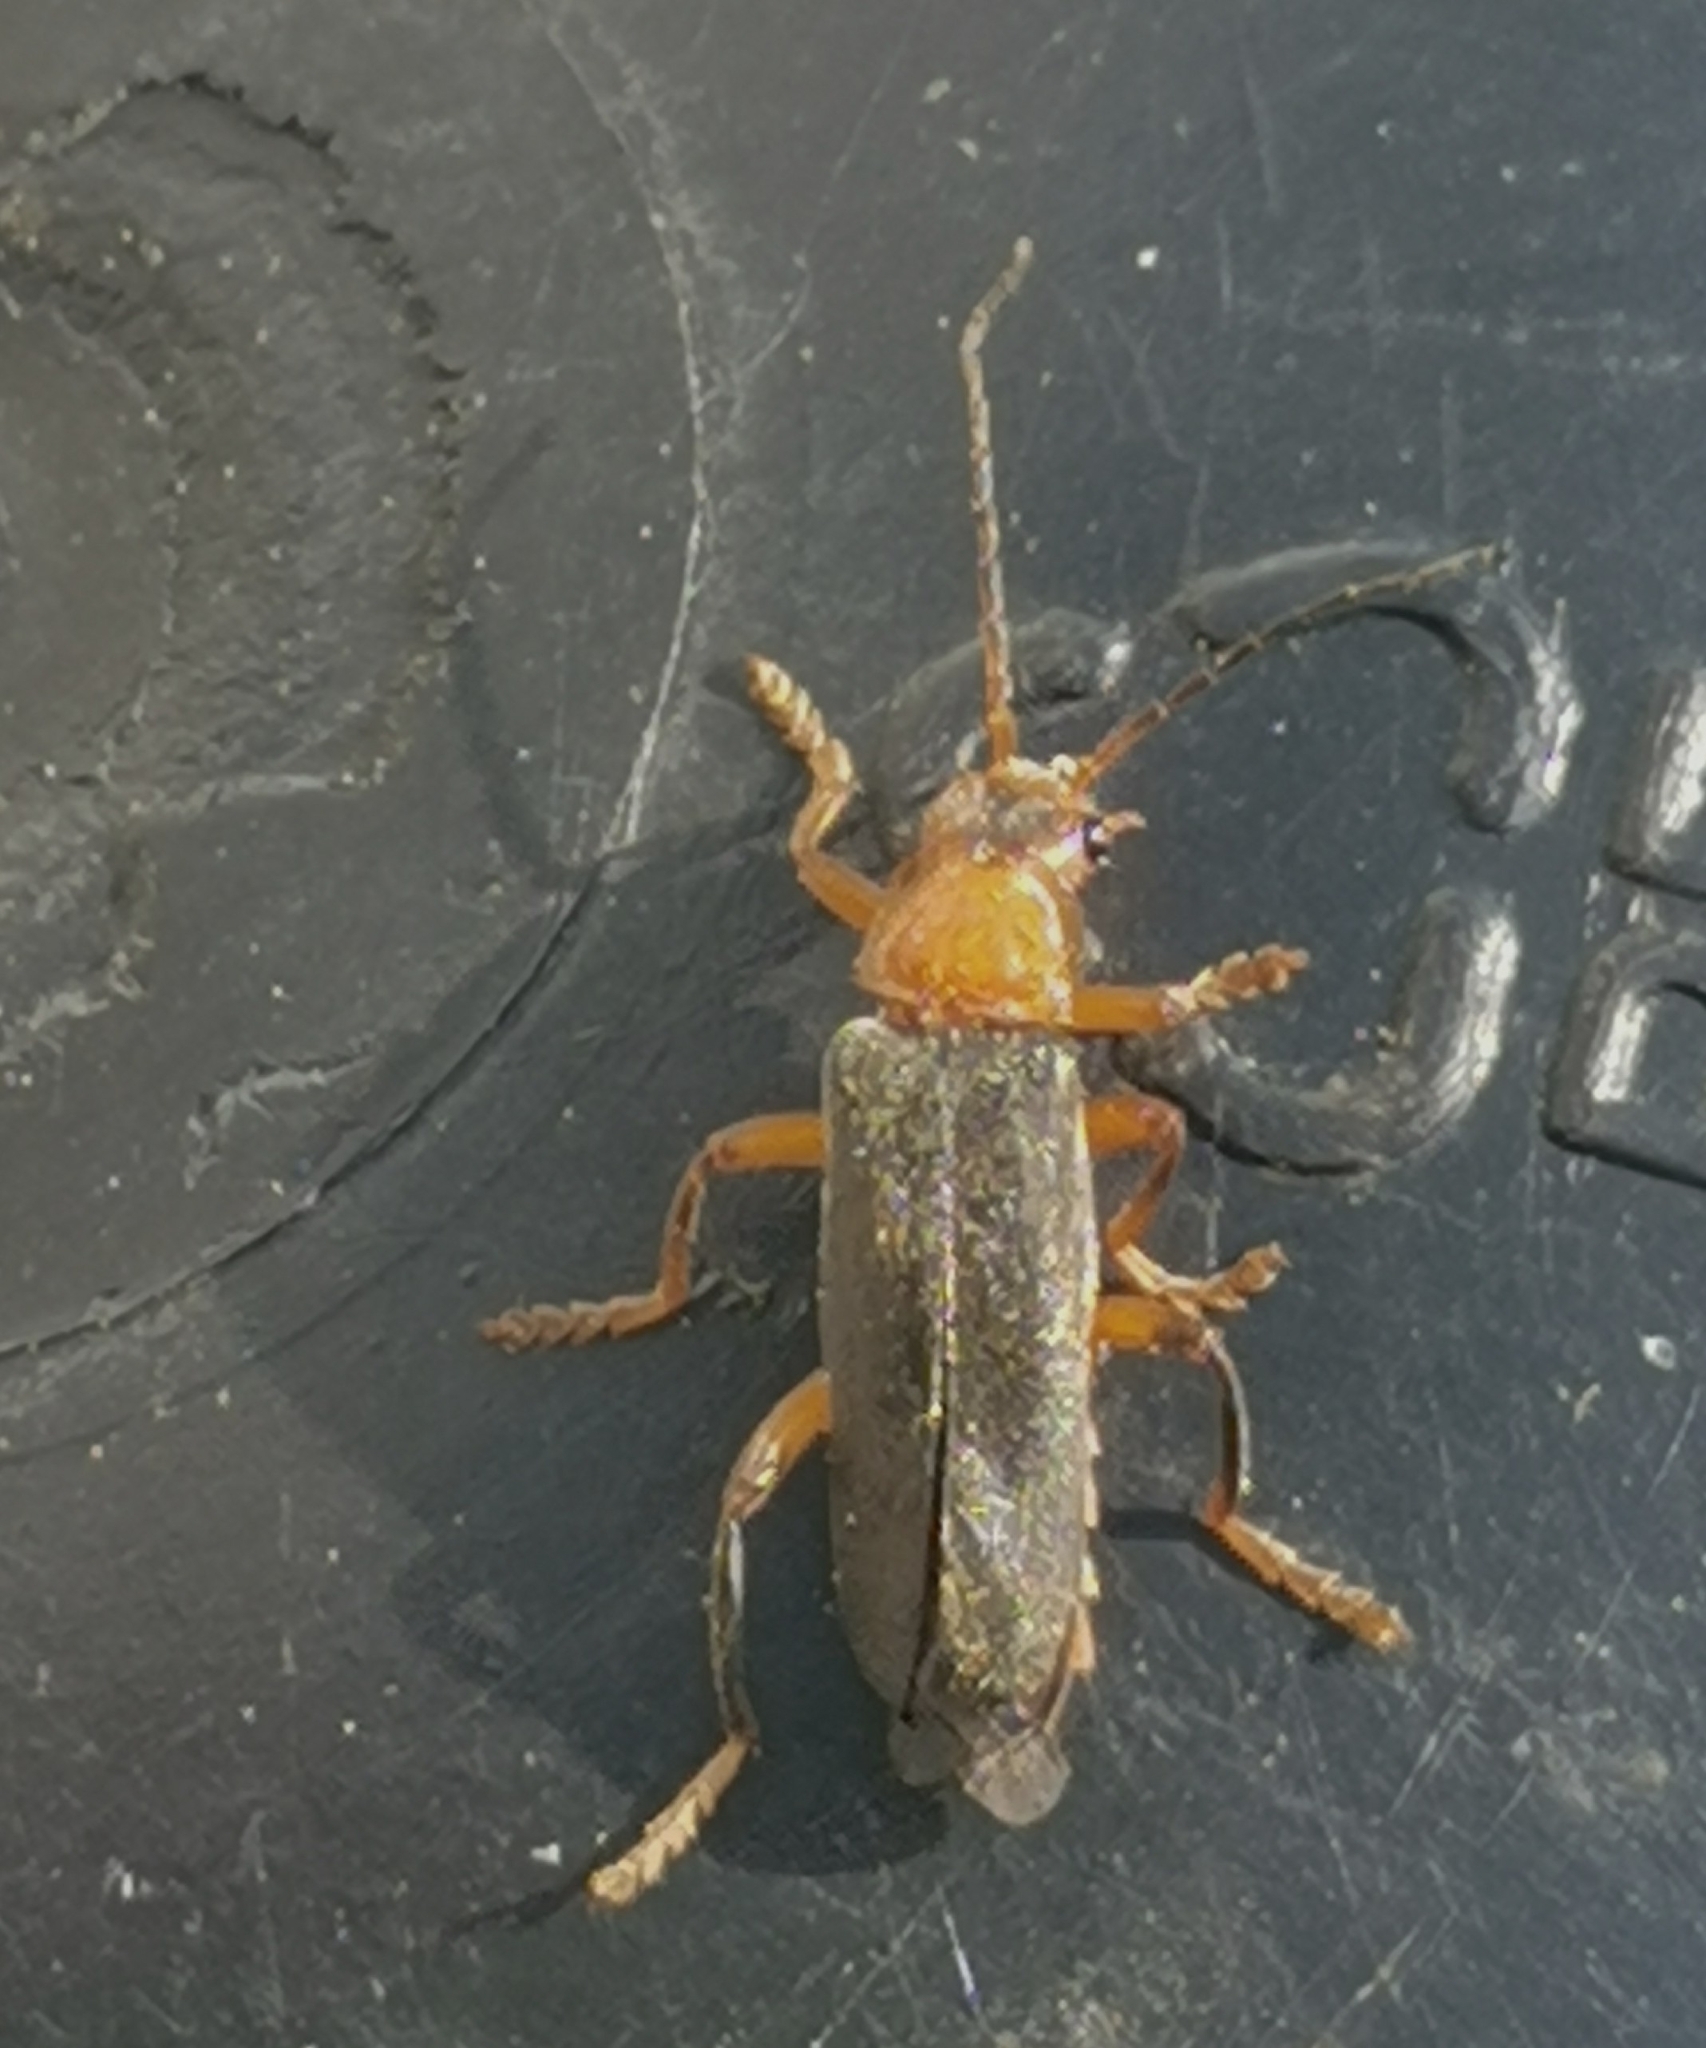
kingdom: Animalia
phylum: Arthropoda
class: Insecta
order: Coleoptera
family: Cantharidae
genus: Cantharis
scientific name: Cantharis livida
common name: Livid soldier beetle
